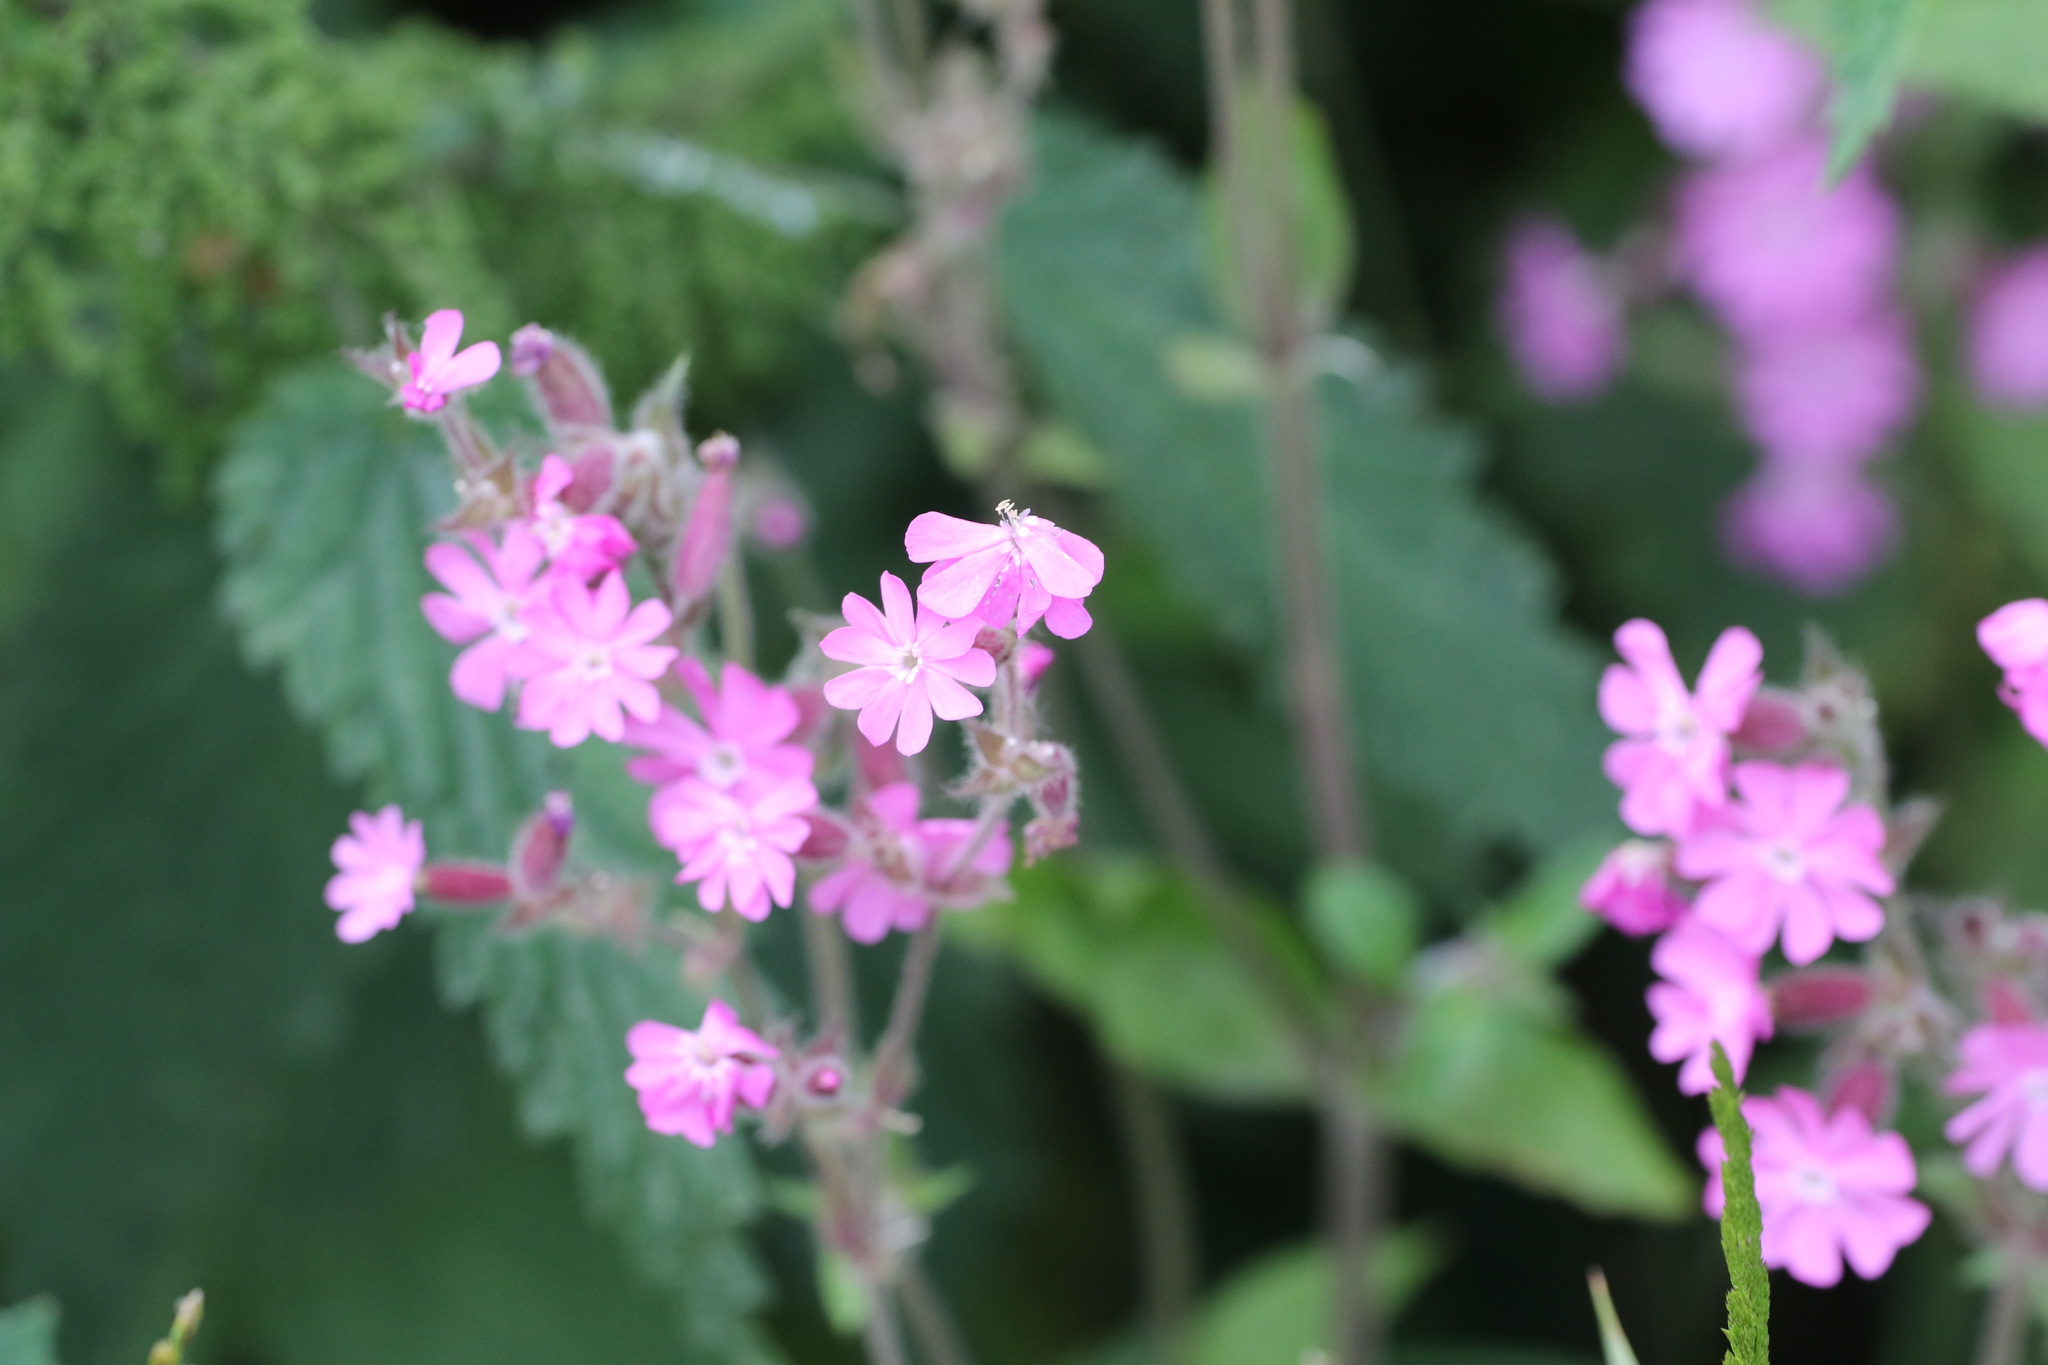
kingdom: Plantae
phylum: Tracheophyta
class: Magnoliopsida
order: Caryophyllales
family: Caryophyllaceae
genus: Silene
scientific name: Silene dioica
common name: Red campion
